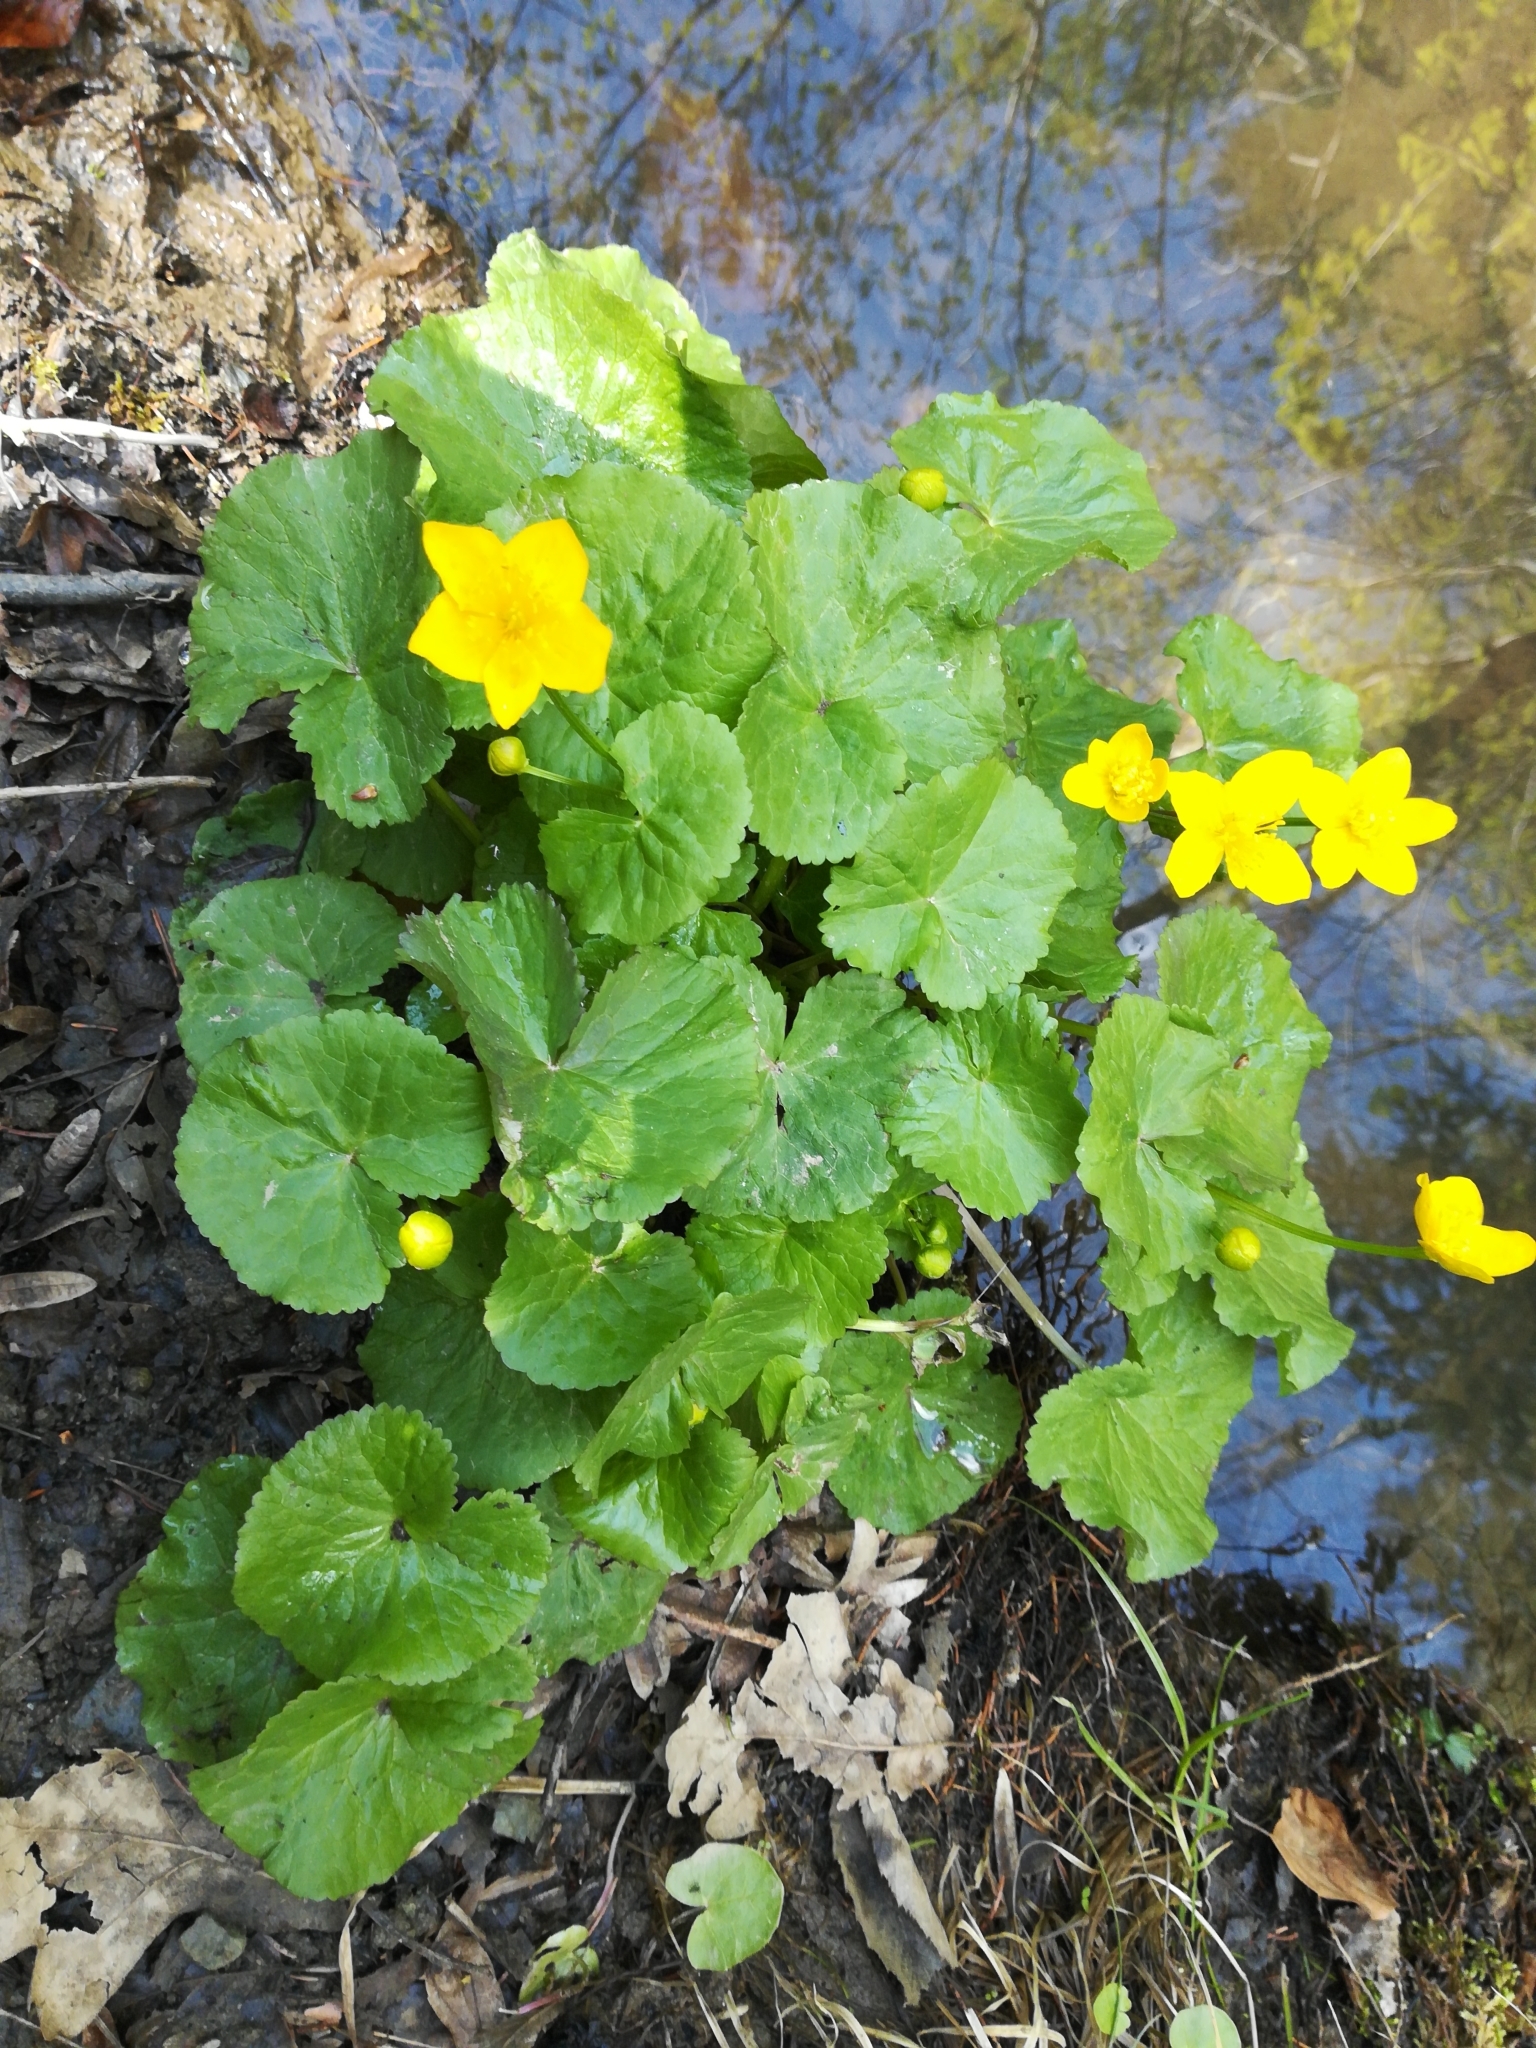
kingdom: Plantae
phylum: Tracheophyta
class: Magnoliopsida
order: Ranunculales
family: Ranunculaceae
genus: Caltha
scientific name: Caltha palustris
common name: Marsh marigold
